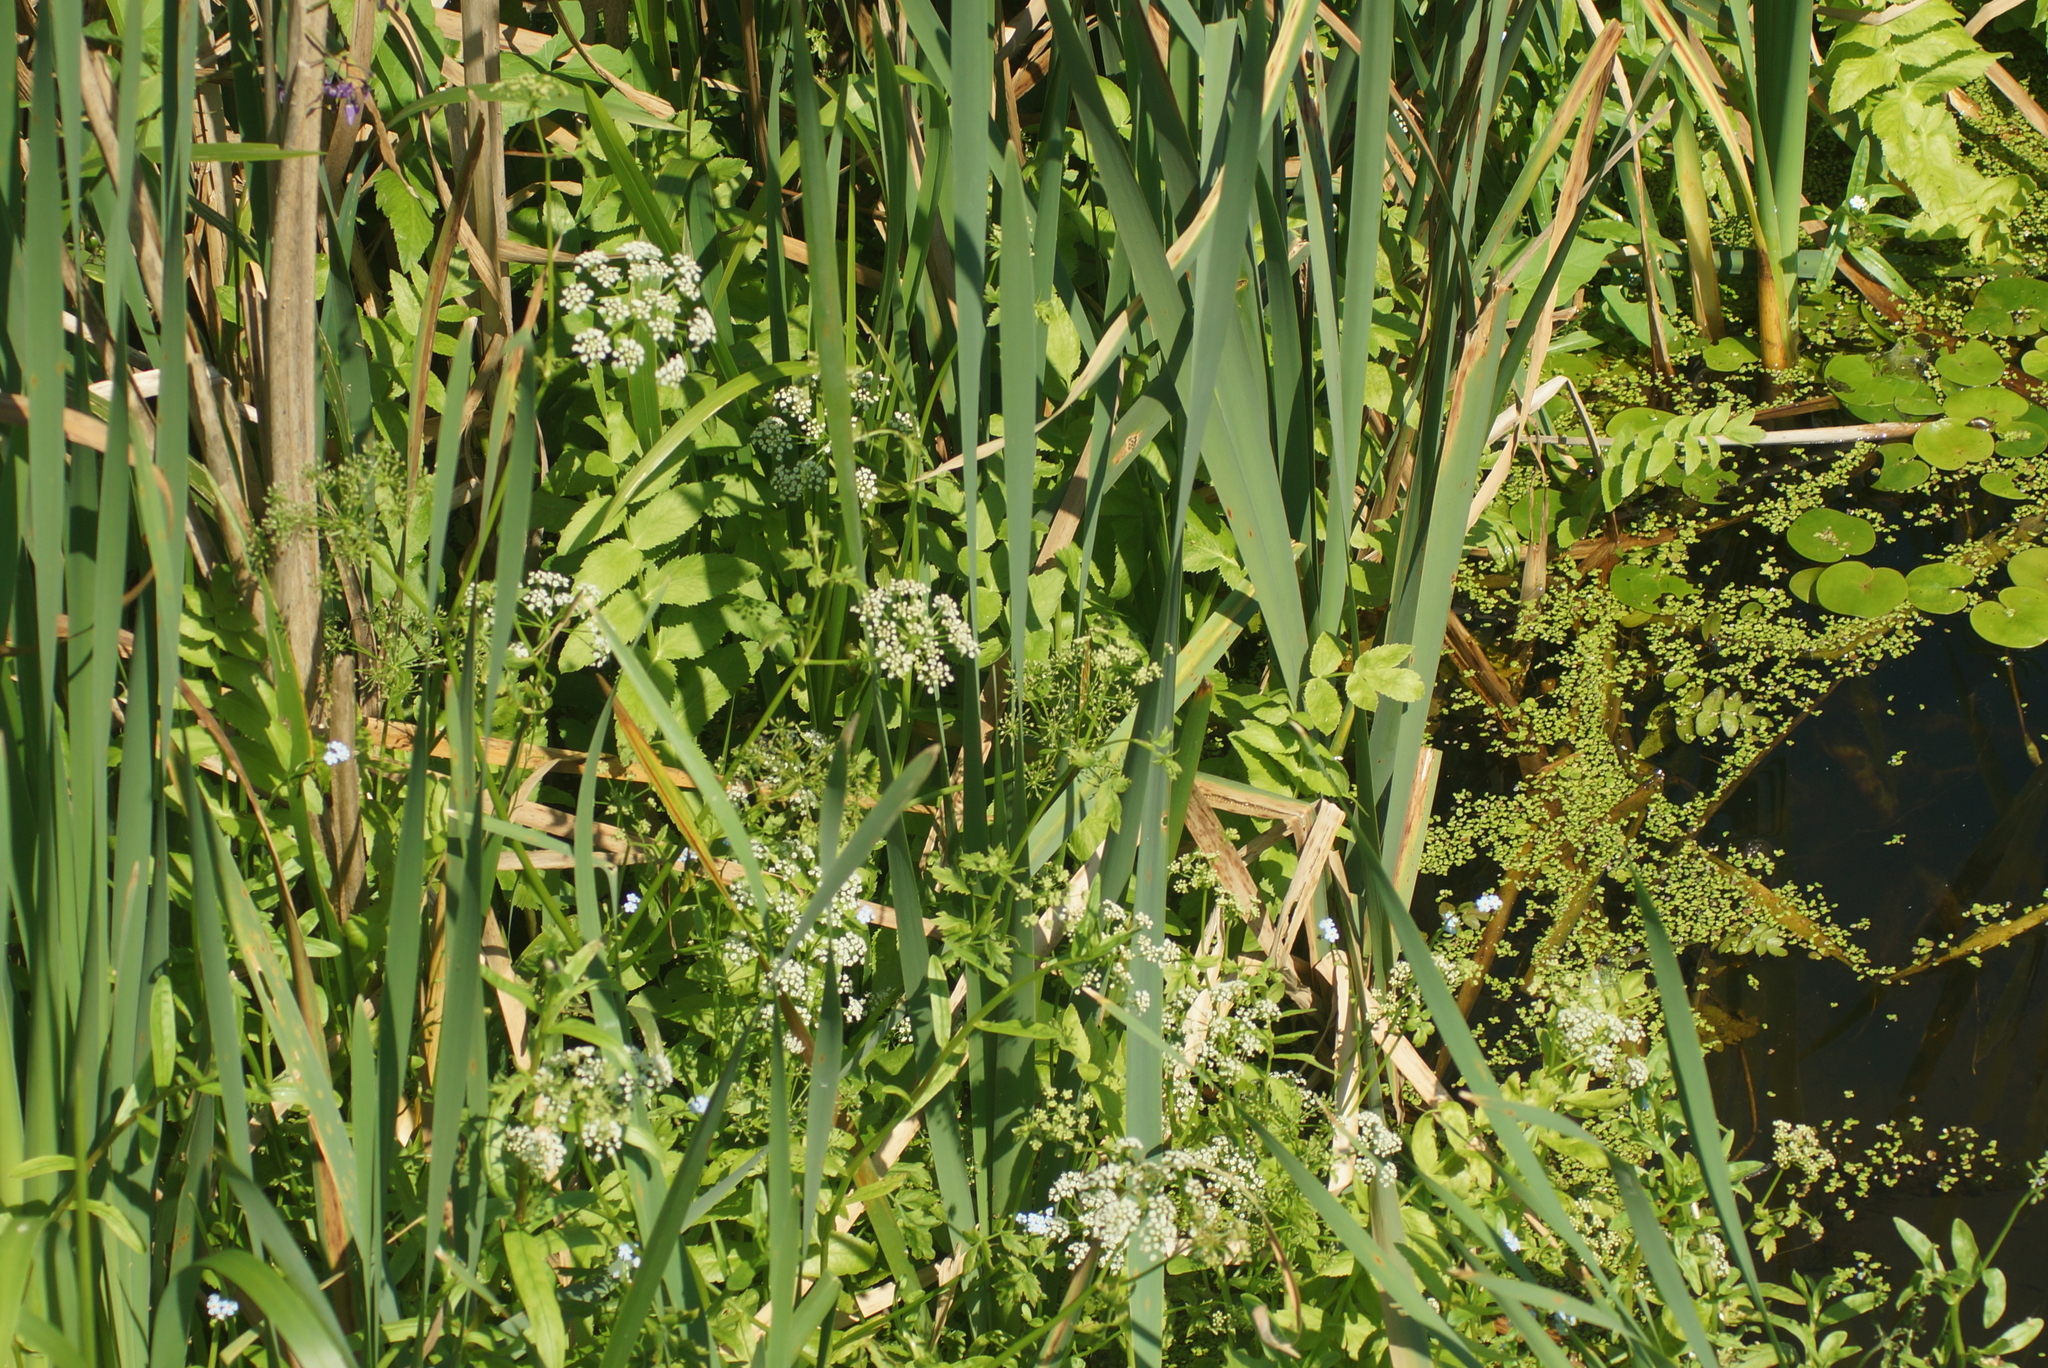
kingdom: Plantae
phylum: Tracheophyta
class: Magnoliopsida
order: Apiales
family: Apiaceae
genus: Sium
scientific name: Sium latifolium
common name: Greater water-parsnip
